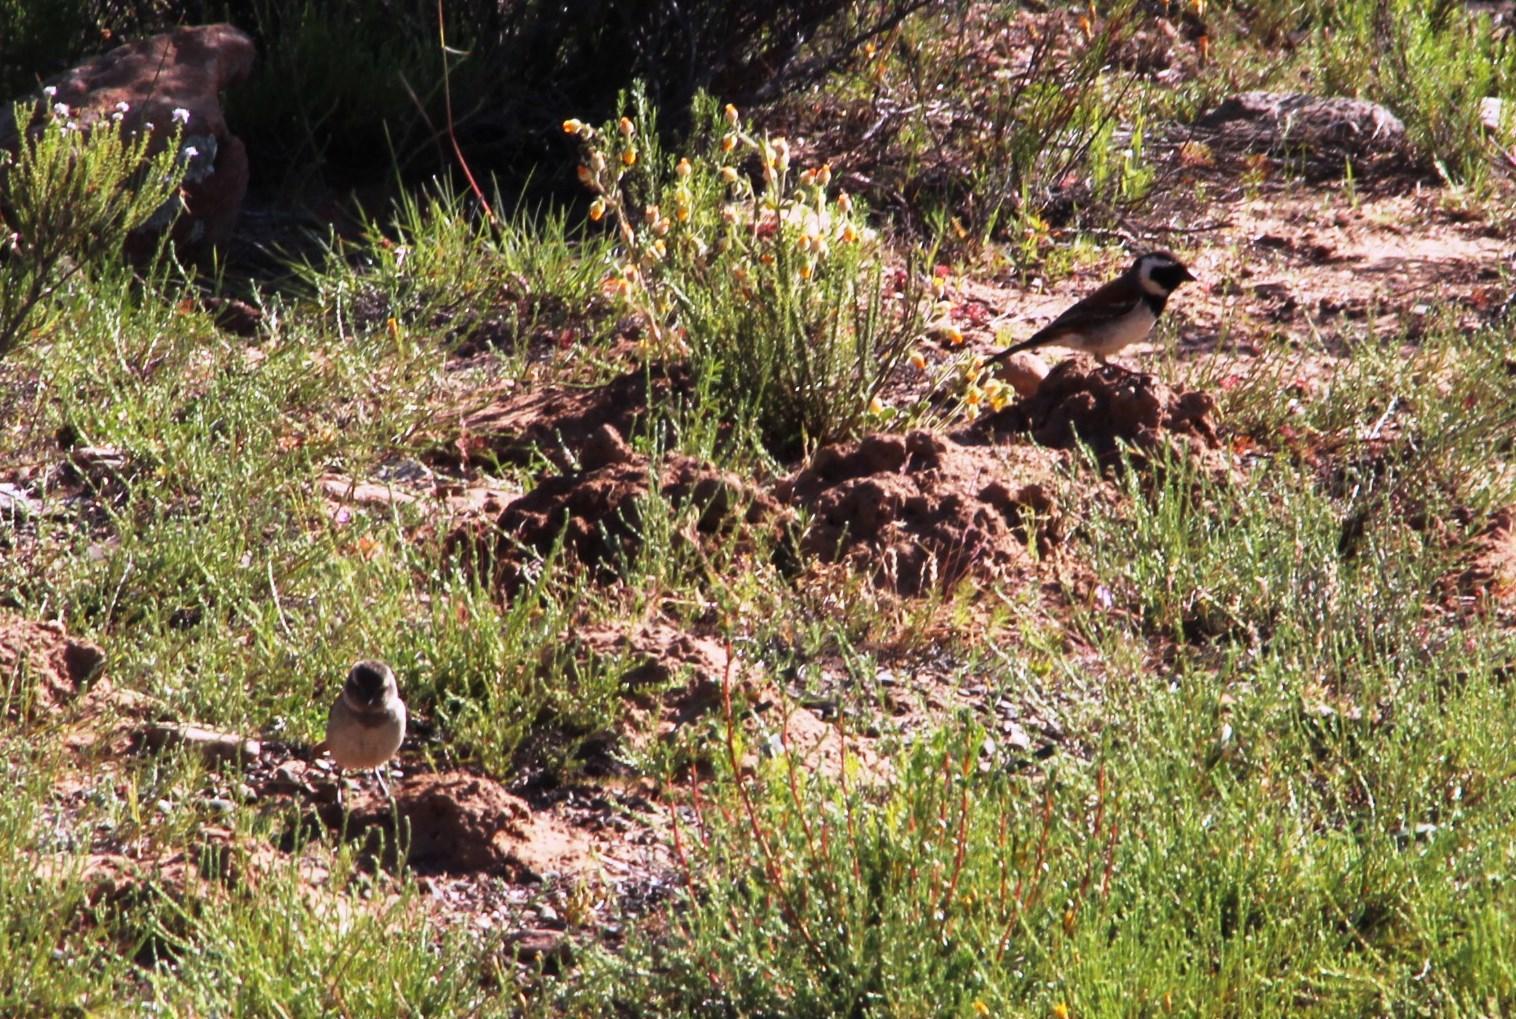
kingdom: Animalia
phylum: Chordata
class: Aves
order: Passeriformes
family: Passeridae
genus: Passer
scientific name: Passer melanurus
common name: Cape sparrow
